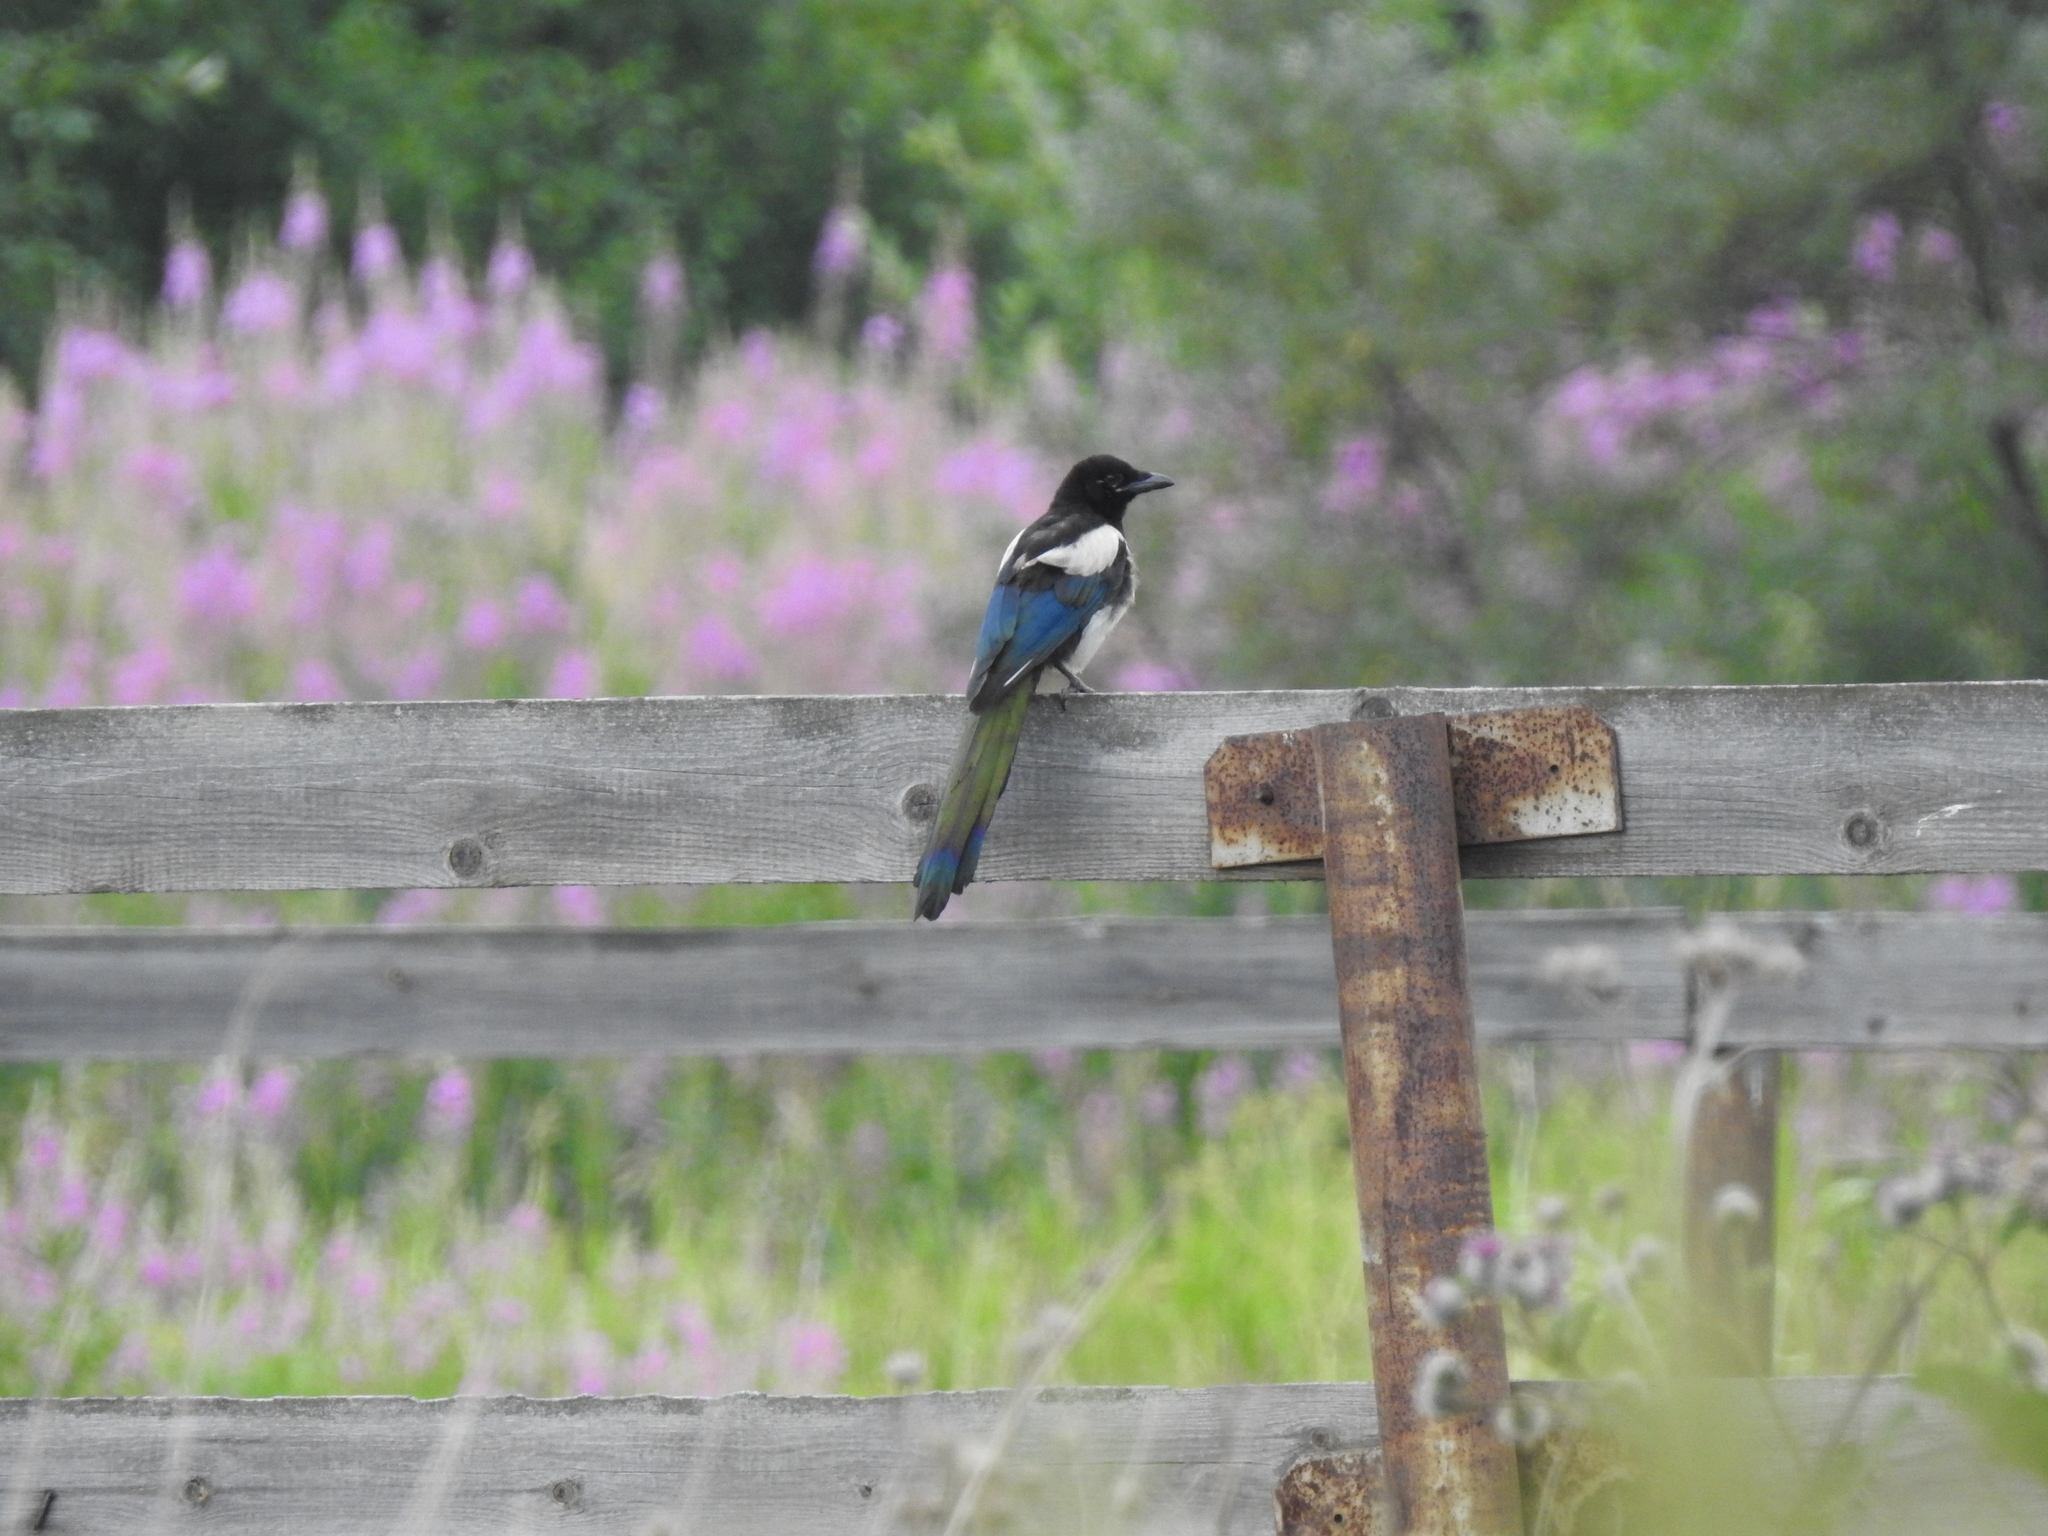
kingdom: Animalia
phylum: Chordata
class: Aves
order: Passeriformes
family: Corvidae
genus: Pica
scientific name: Pica pica
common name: Eurasian magpie
